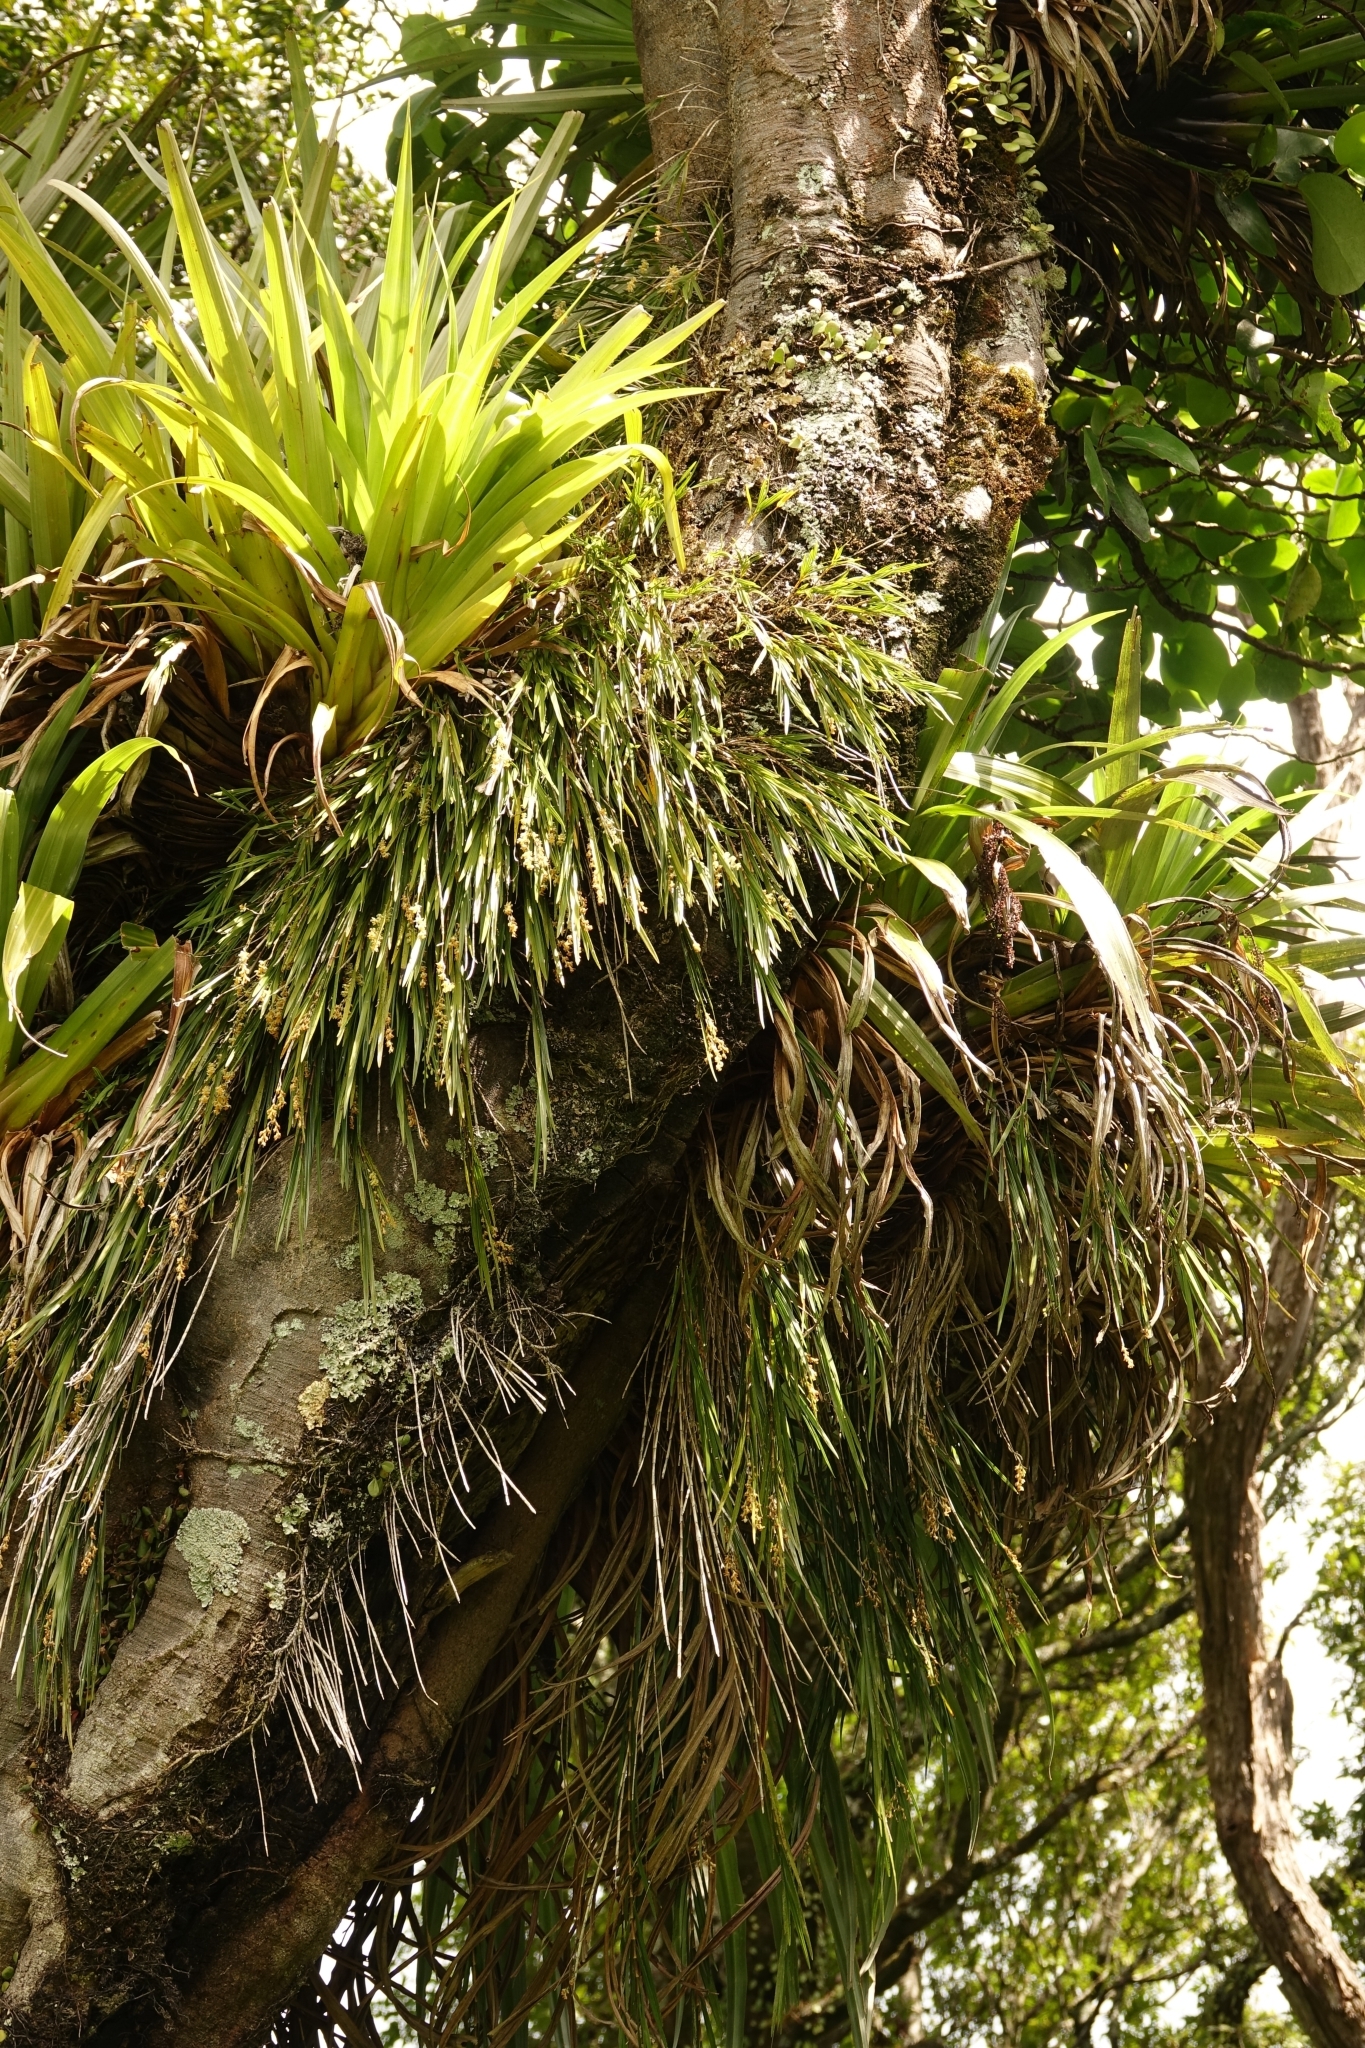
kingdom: Plantae
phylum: Tracheophyta
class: Liliopsida
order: Asparagales
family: Orchidaceae
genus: Earina
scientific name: Earina mucronata
